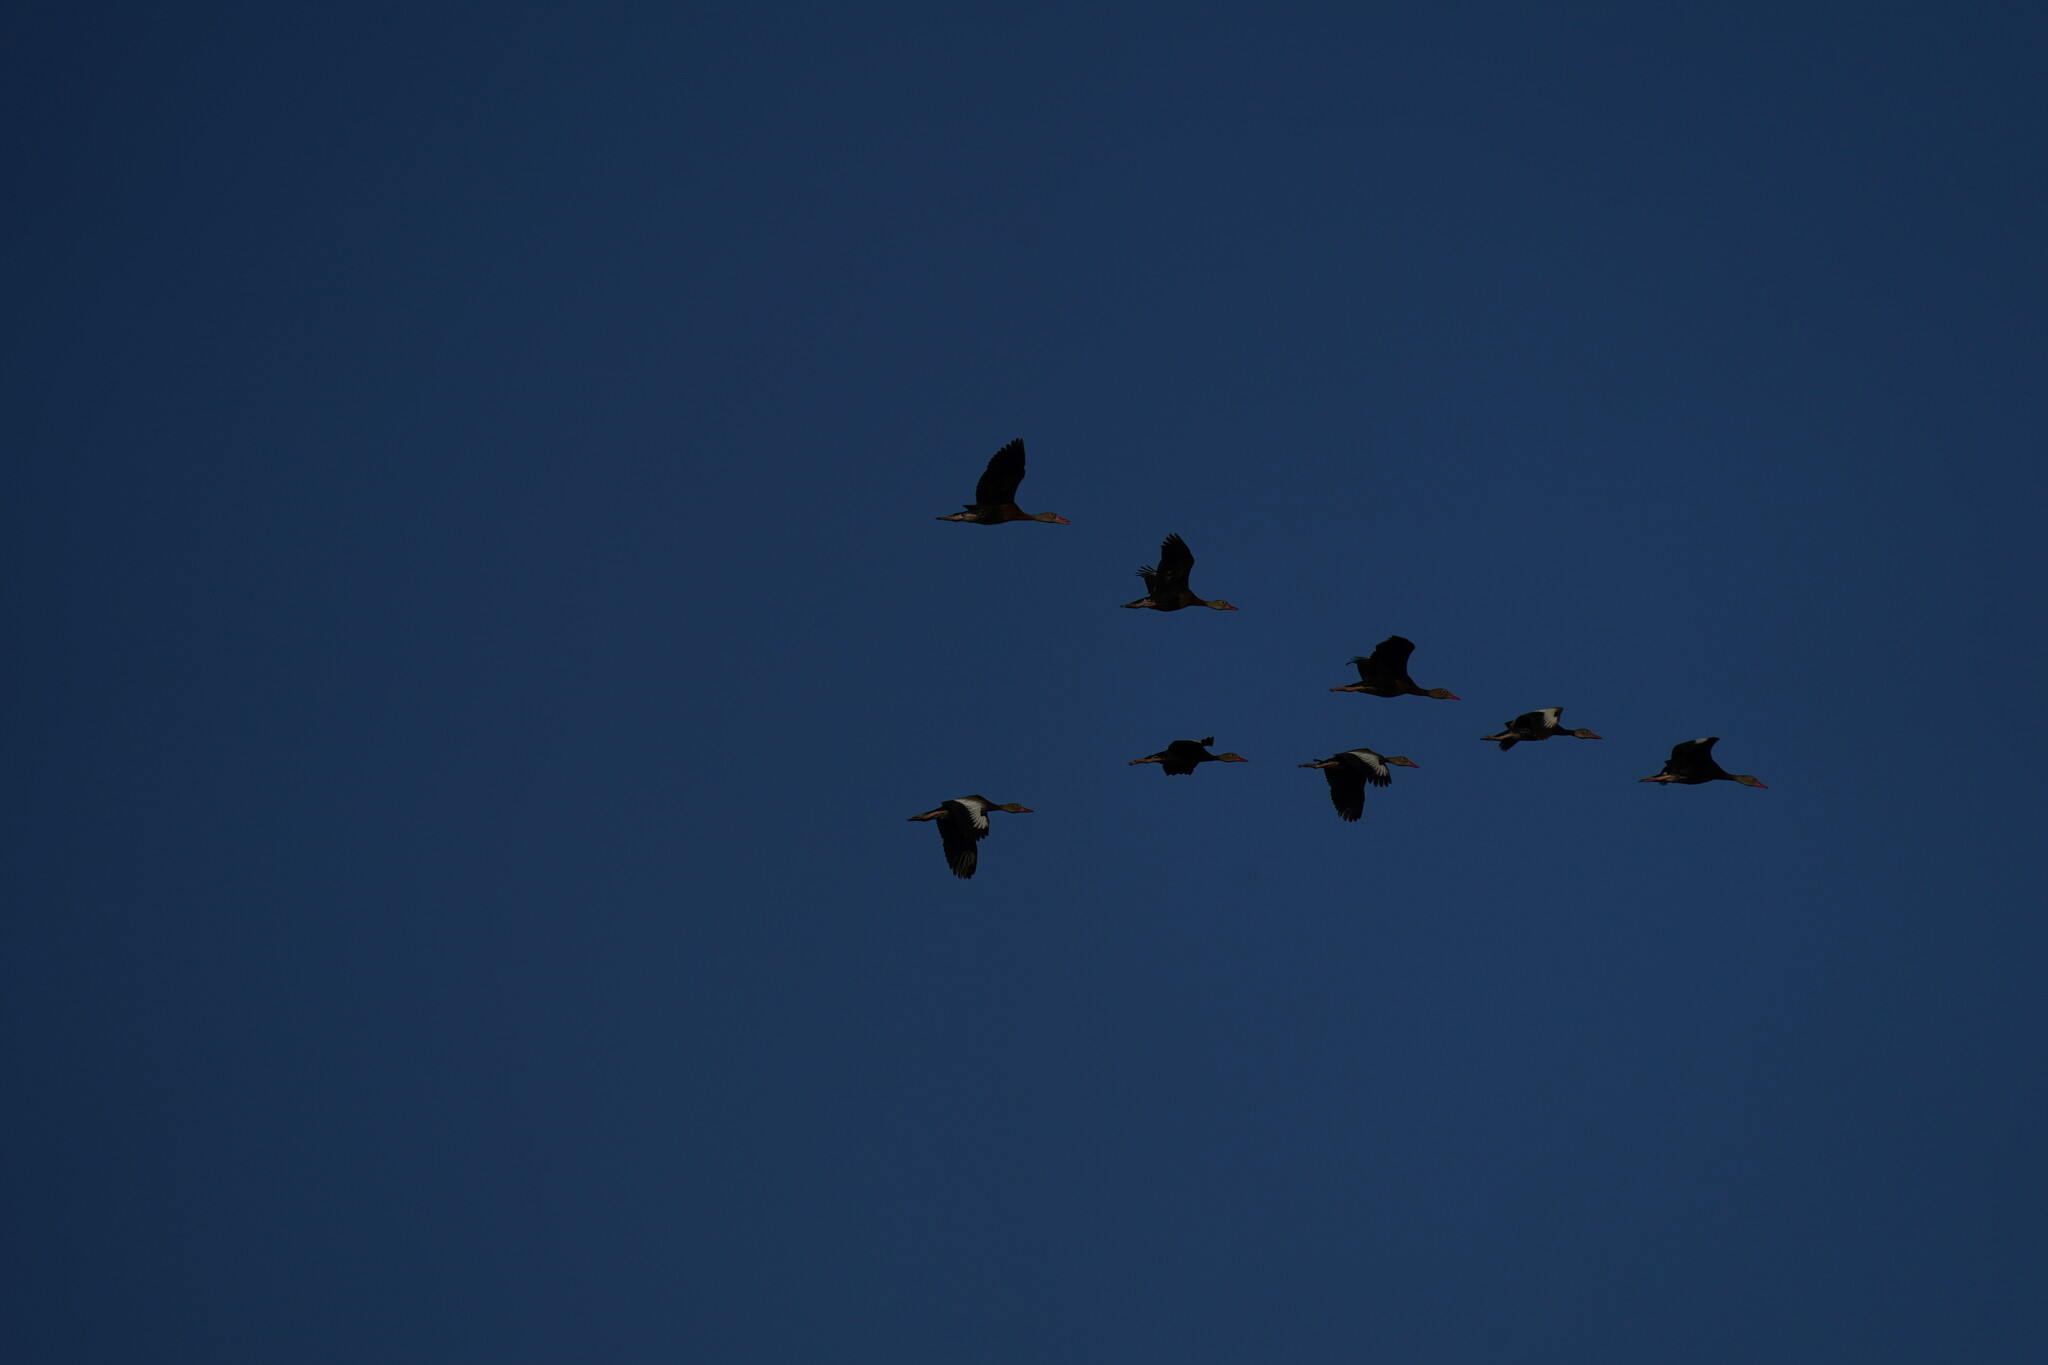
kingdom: Animalia
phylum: Chordata
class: Aves
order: Anseriformes
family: Anatidae
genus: Dendrocygna
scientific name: Dendrocygna autumnalis
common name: Black-bellied whistling duck
